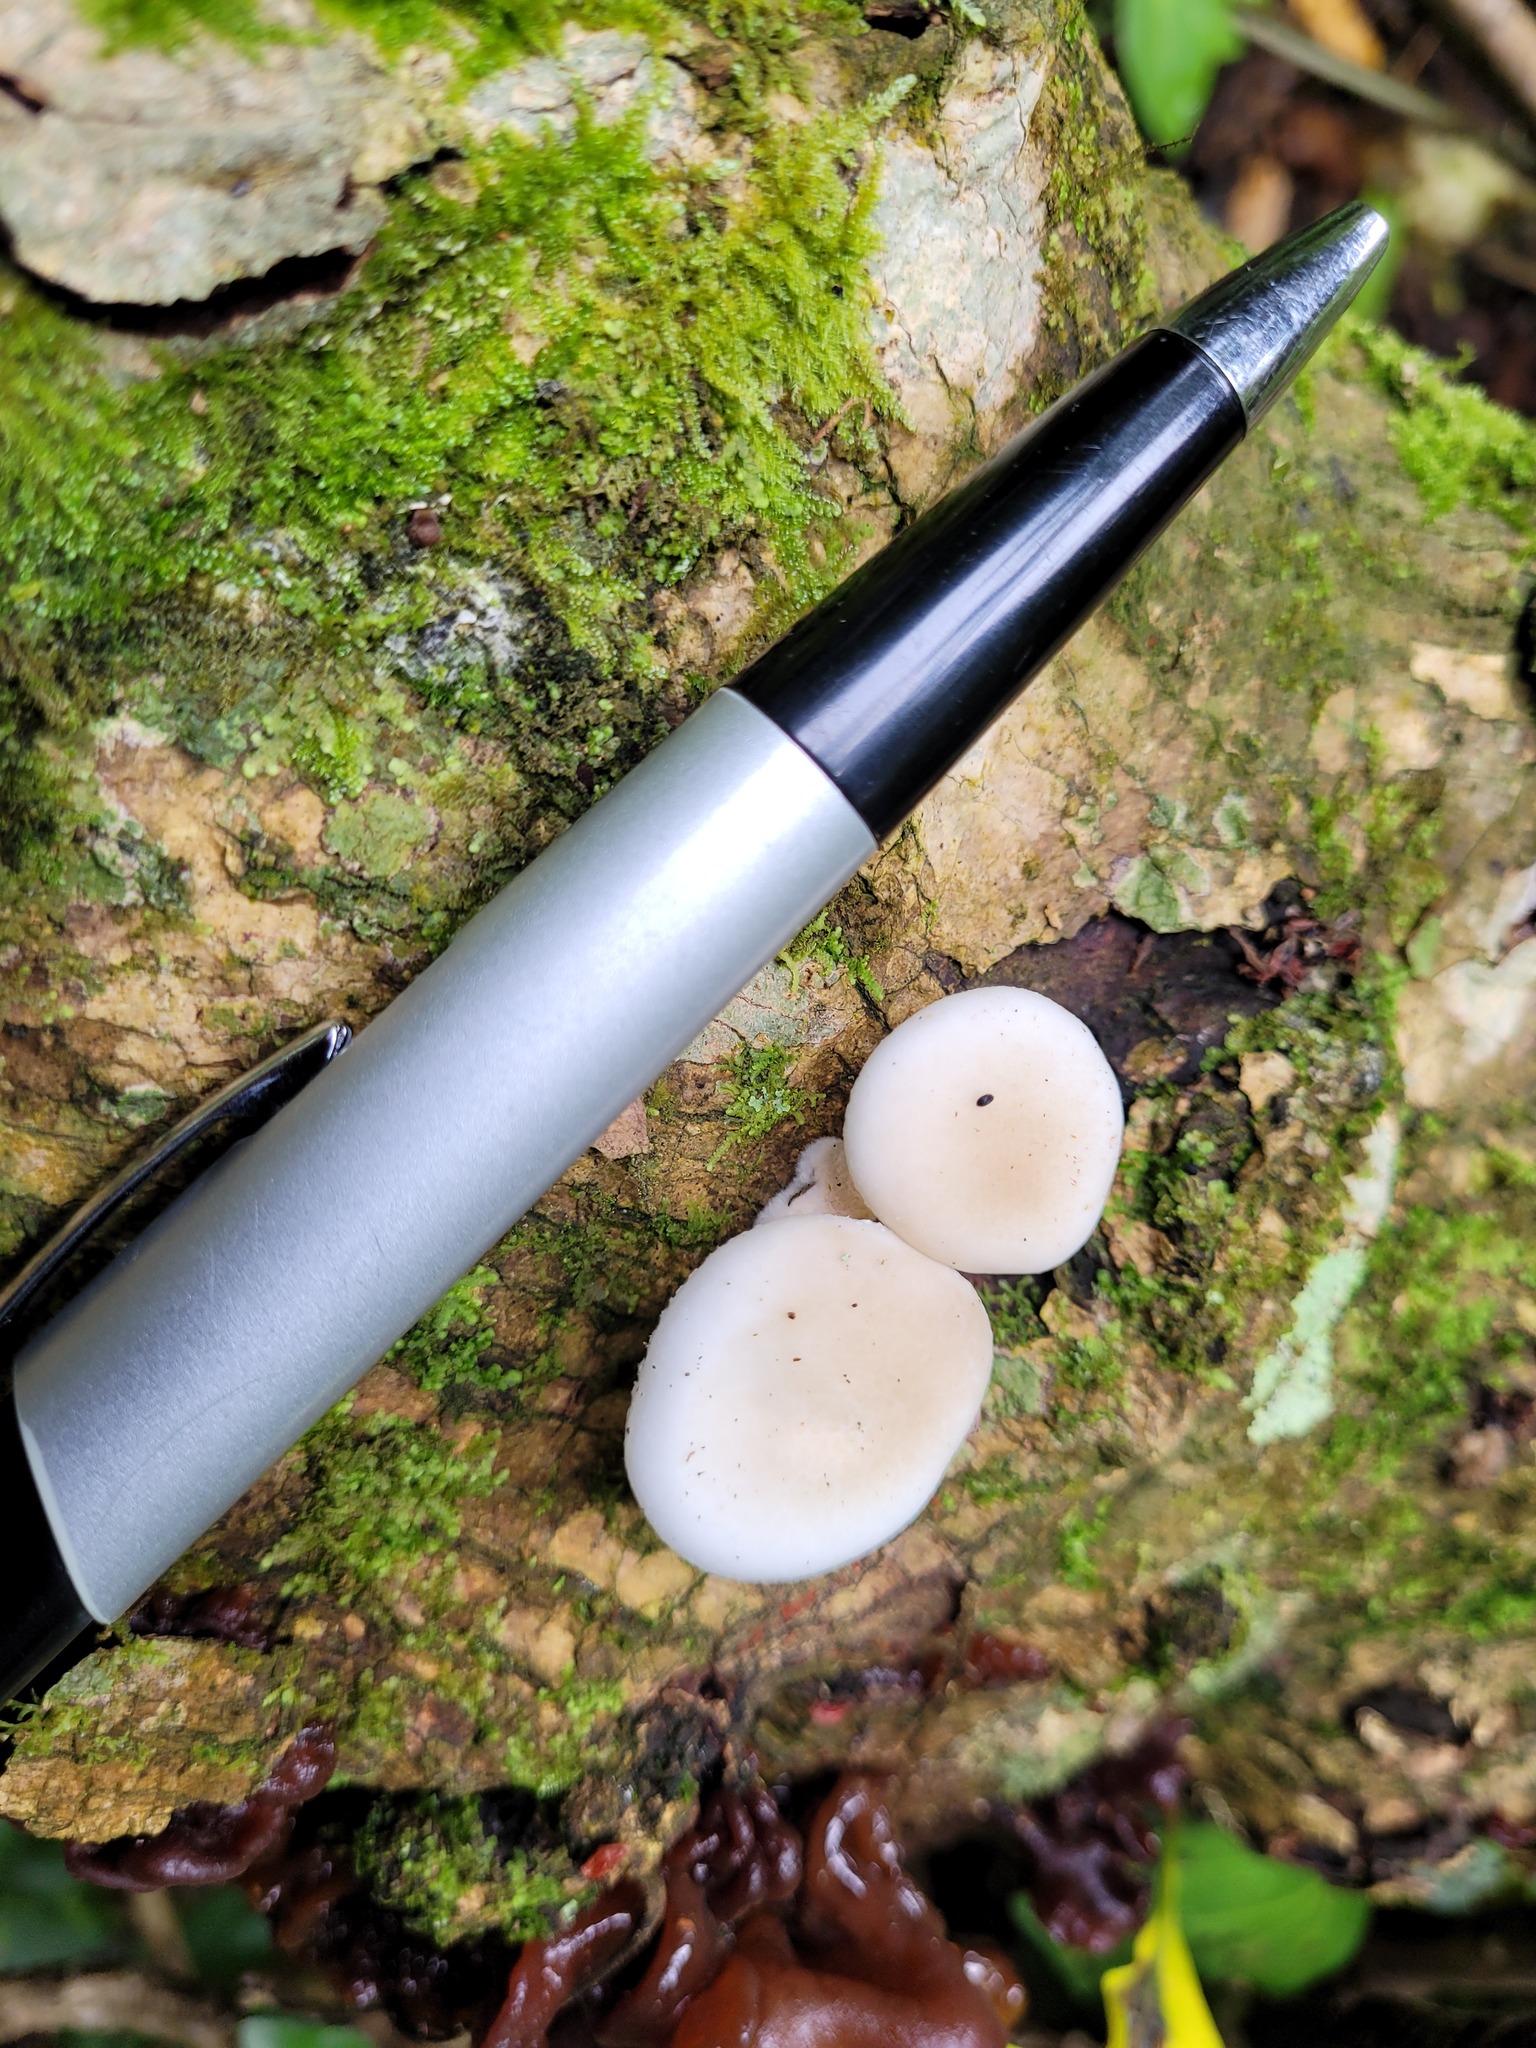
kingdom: Fungi
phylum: Basidiomycota
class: Agaricomycetes
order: Agaricales
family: Physalacriaceae
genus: Oudemansiella
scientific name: Oudemansiella australis
